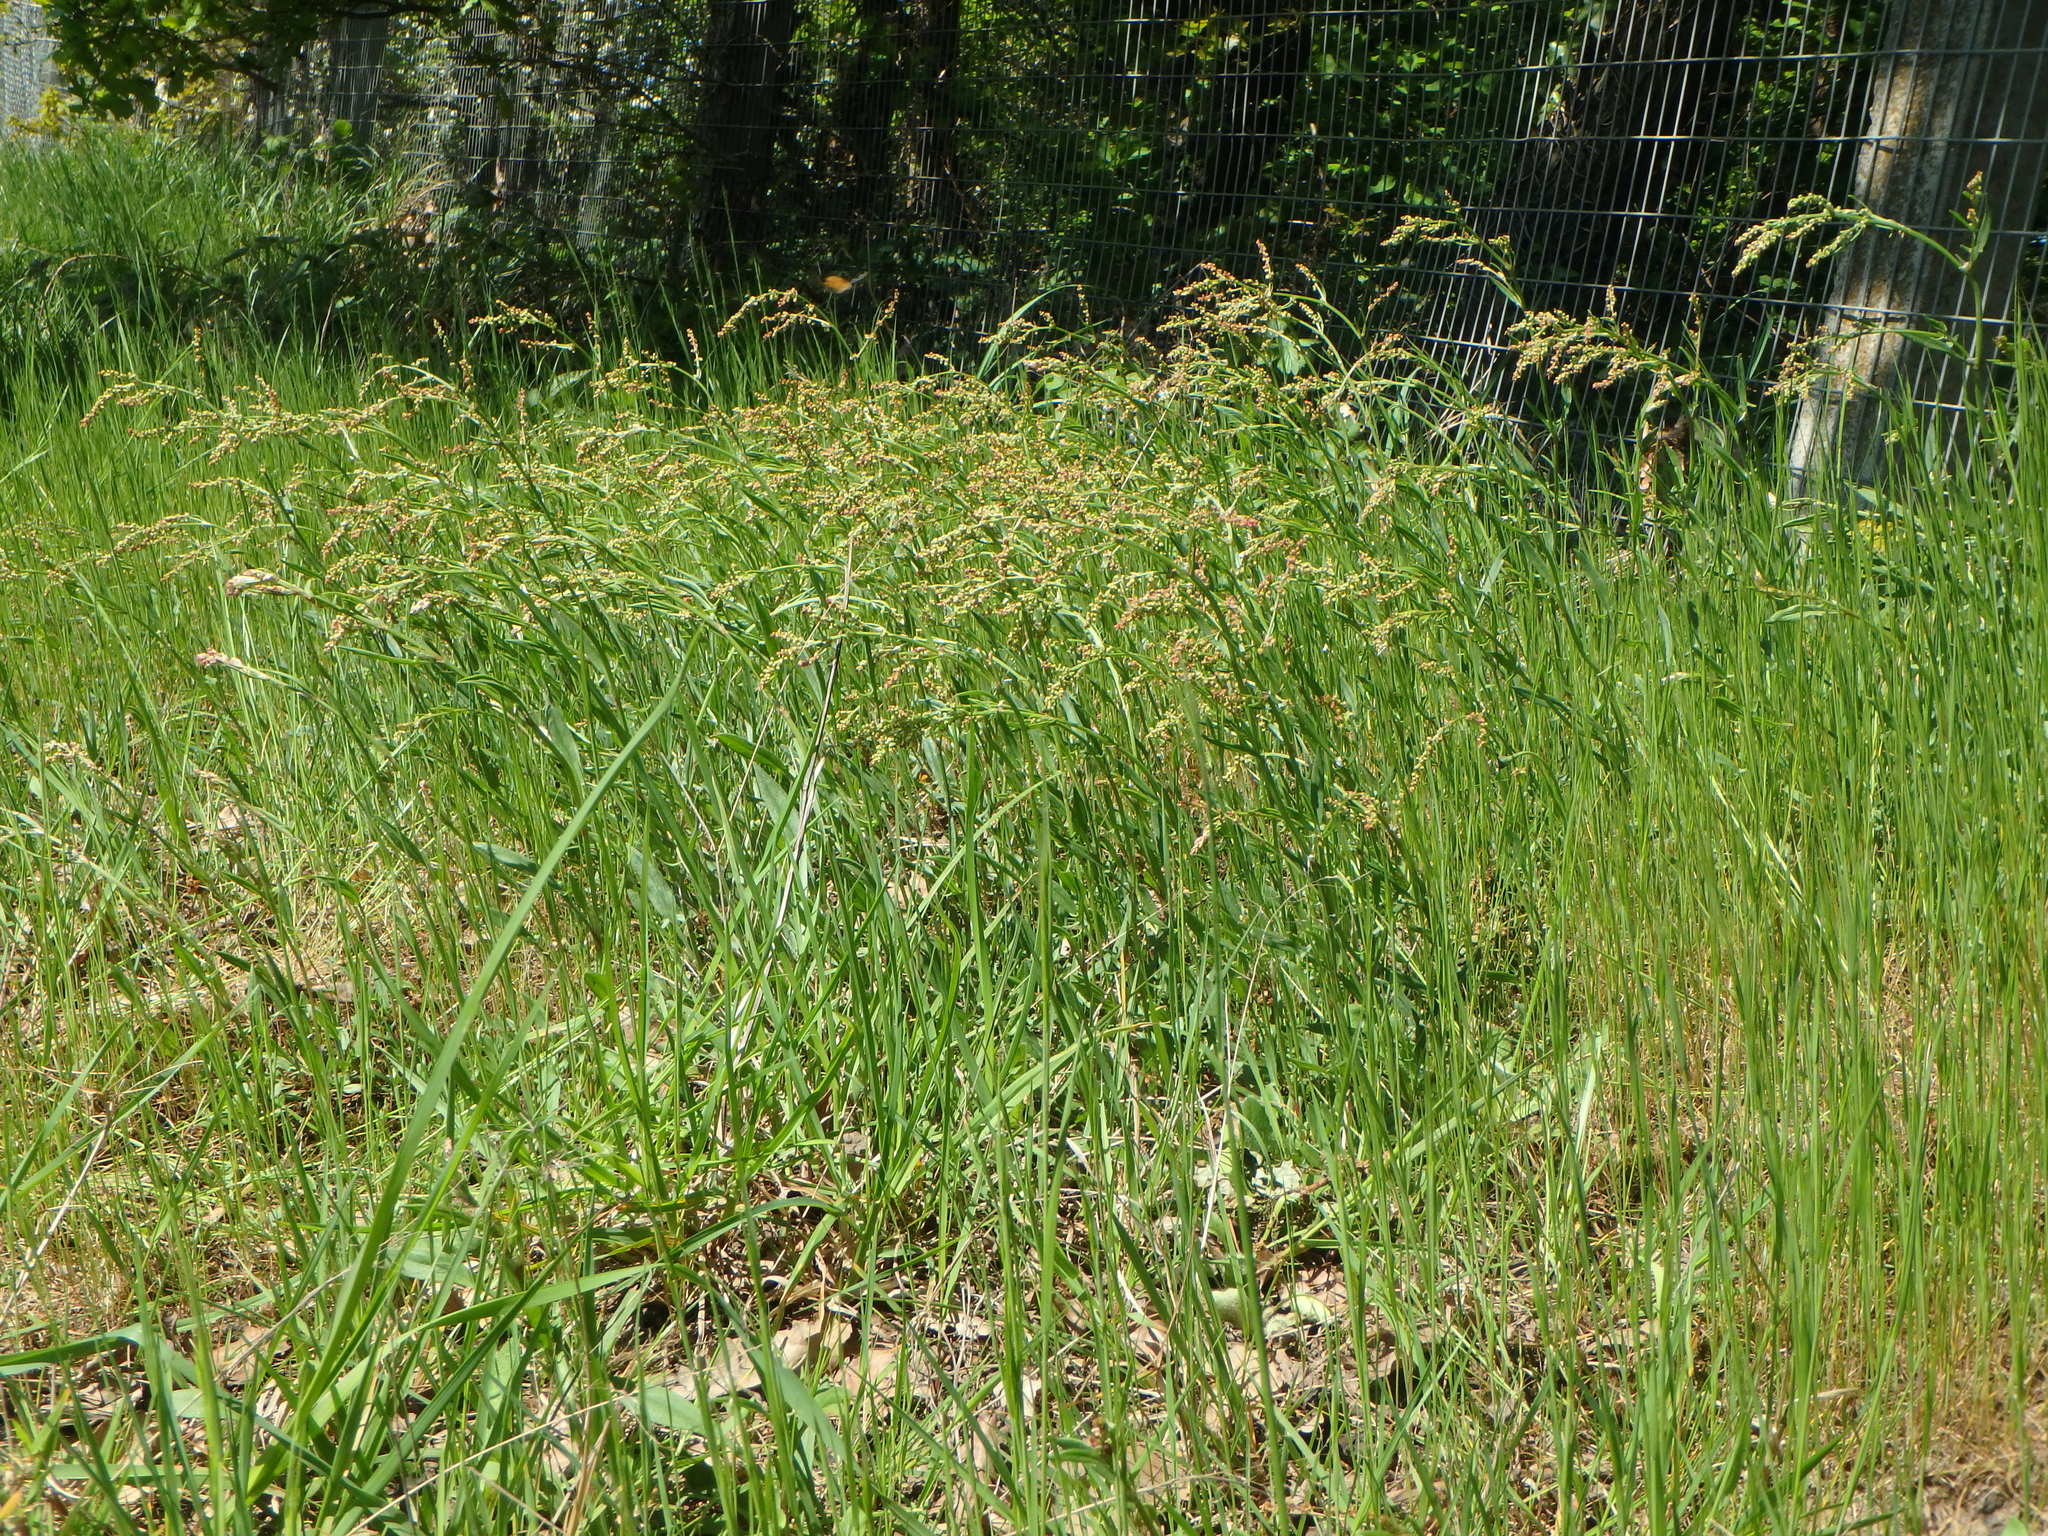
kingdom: Plantae
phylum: Tracheophyta
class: Magnoliopsida
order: Caryophyllales
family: Polygonaceae
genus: Rumex
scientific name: Rumex acetosella
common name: Common sheep sorrel
